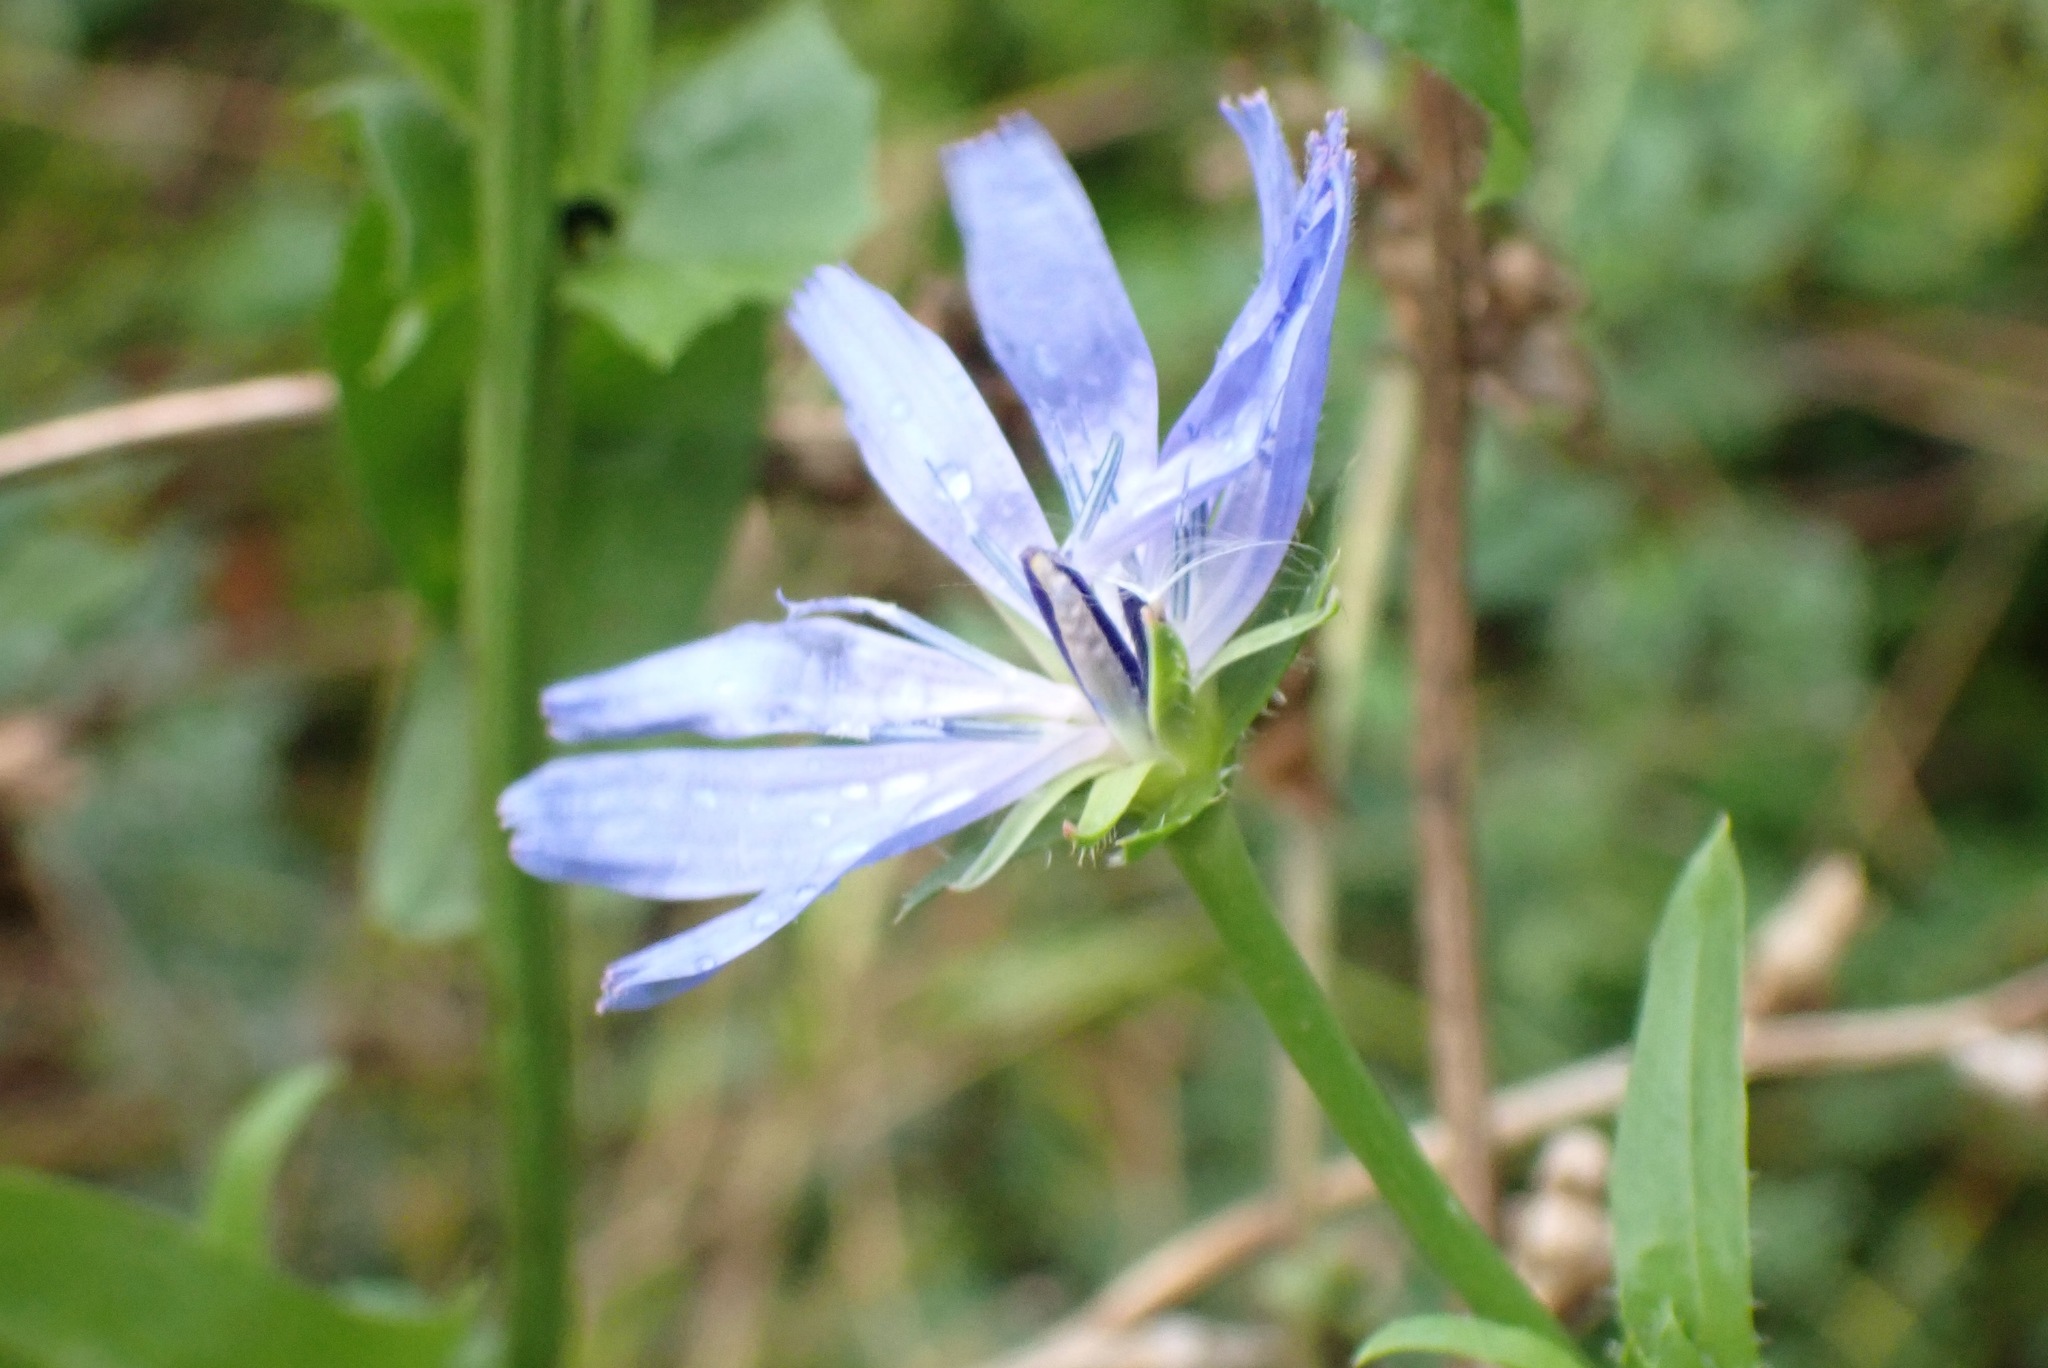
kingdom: Plantae
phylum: Tracheophyta
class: Magnoliopsida
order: Asterales
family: Asteraceae
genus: Cichorium
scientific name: Cichorium intybus
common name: Chicory
